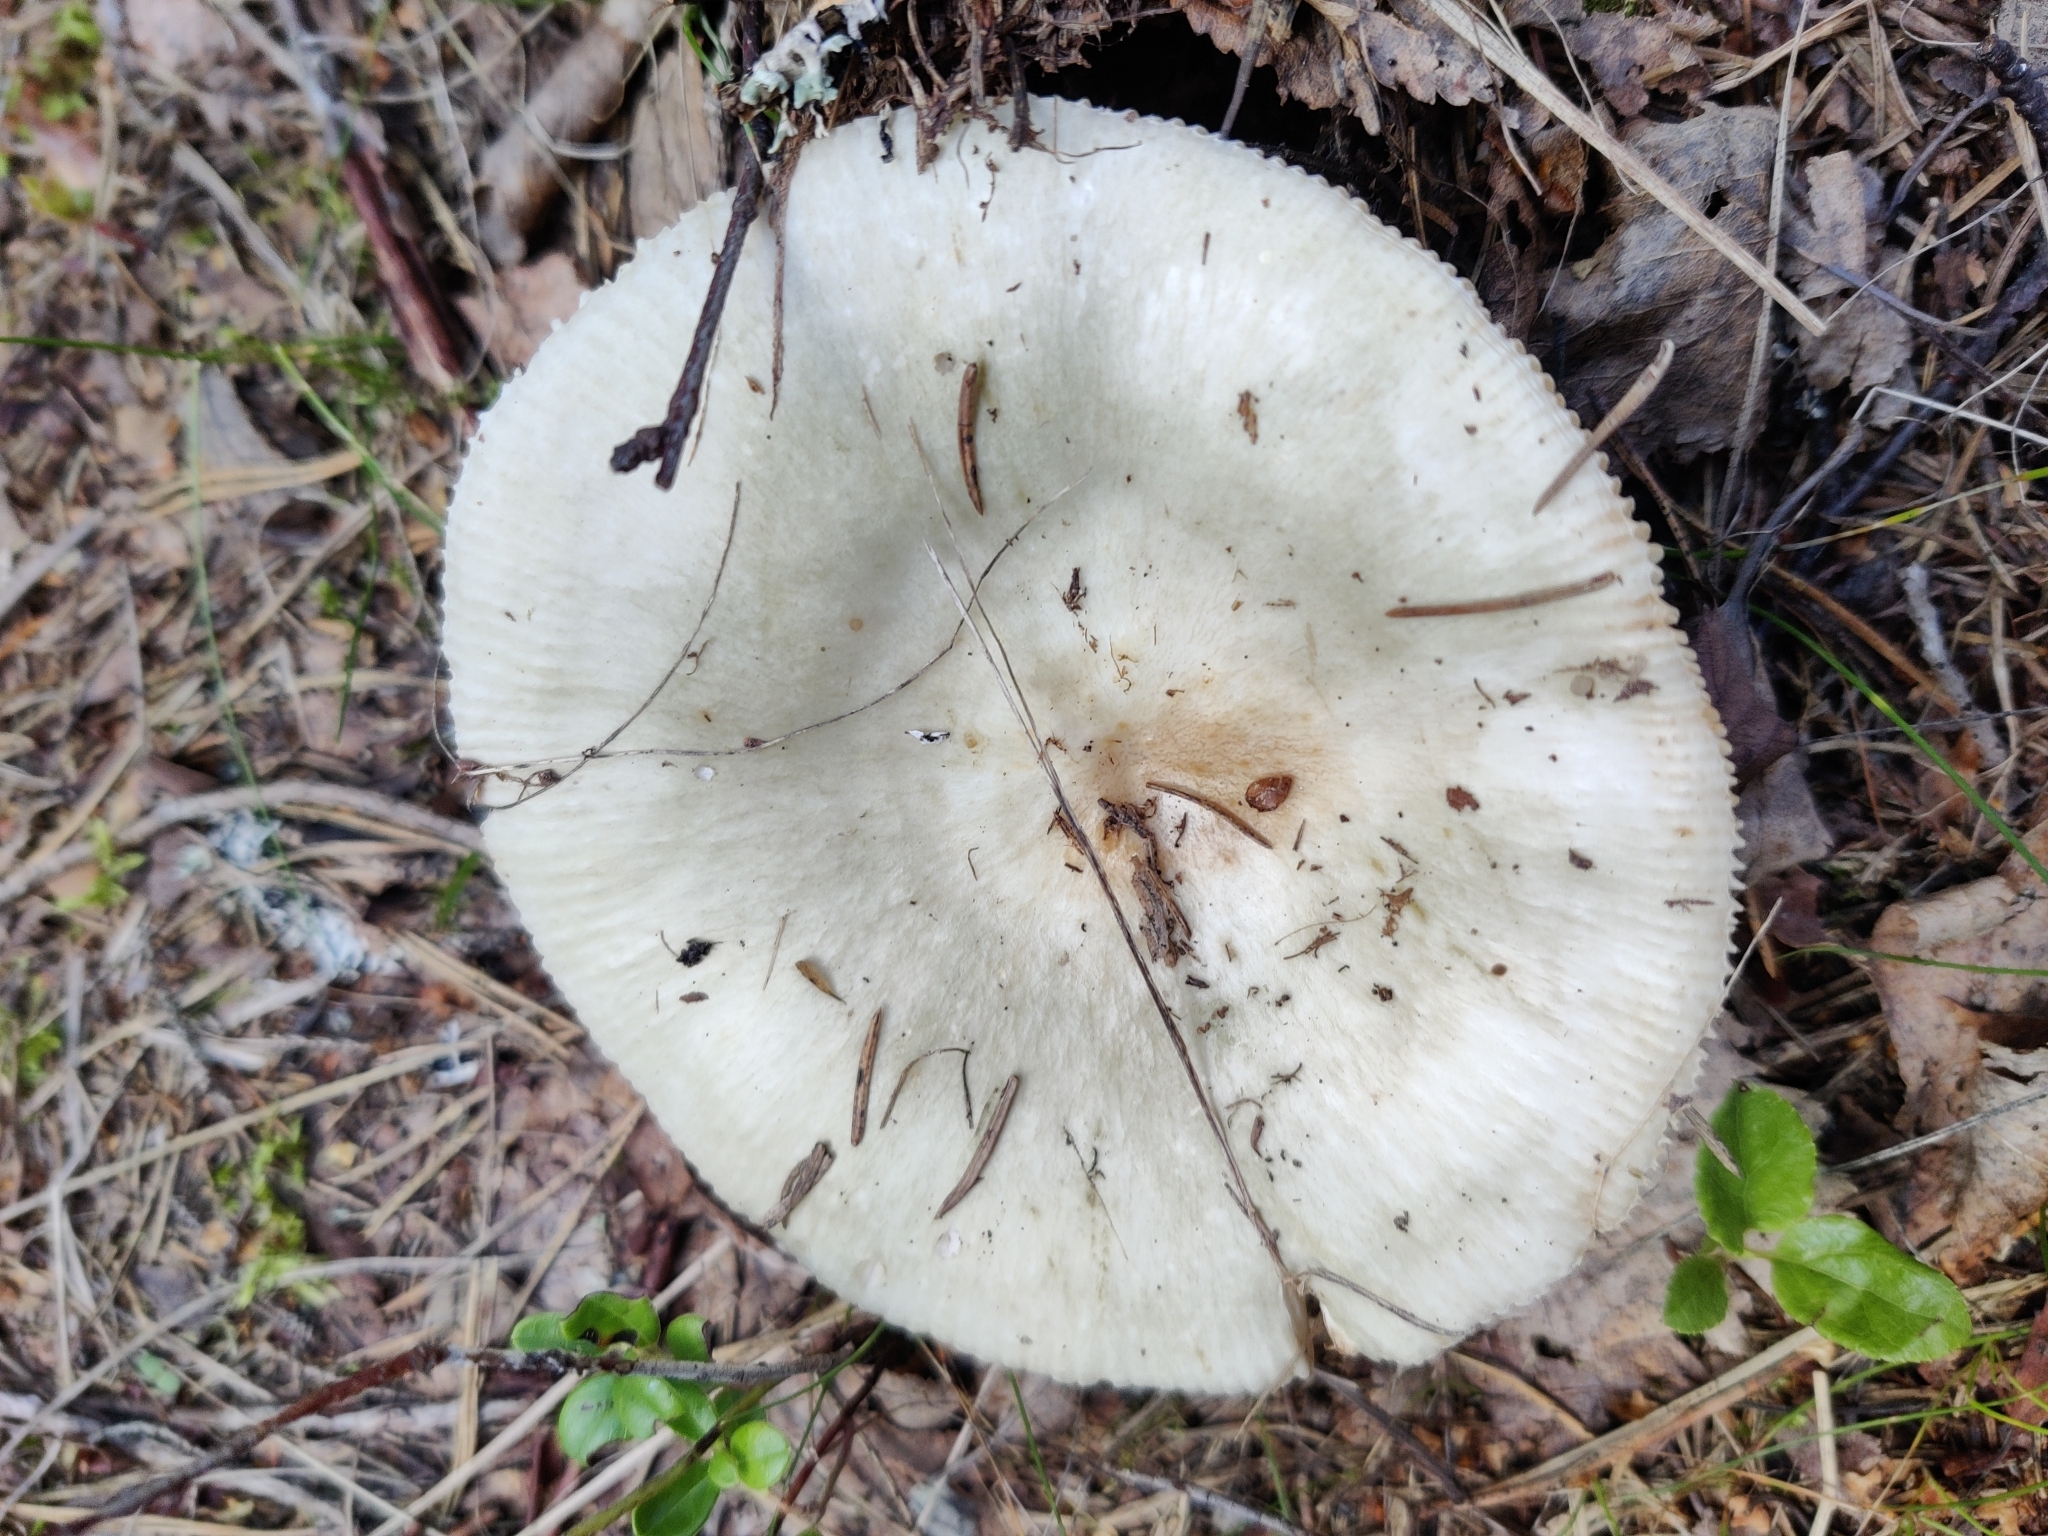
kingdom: Fungi
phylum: Basidiomycota
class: Agaricomycetes
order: Russulales
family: Russulaceae
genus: Russula
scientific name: Russula aeruginea
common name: Green brittlegill
